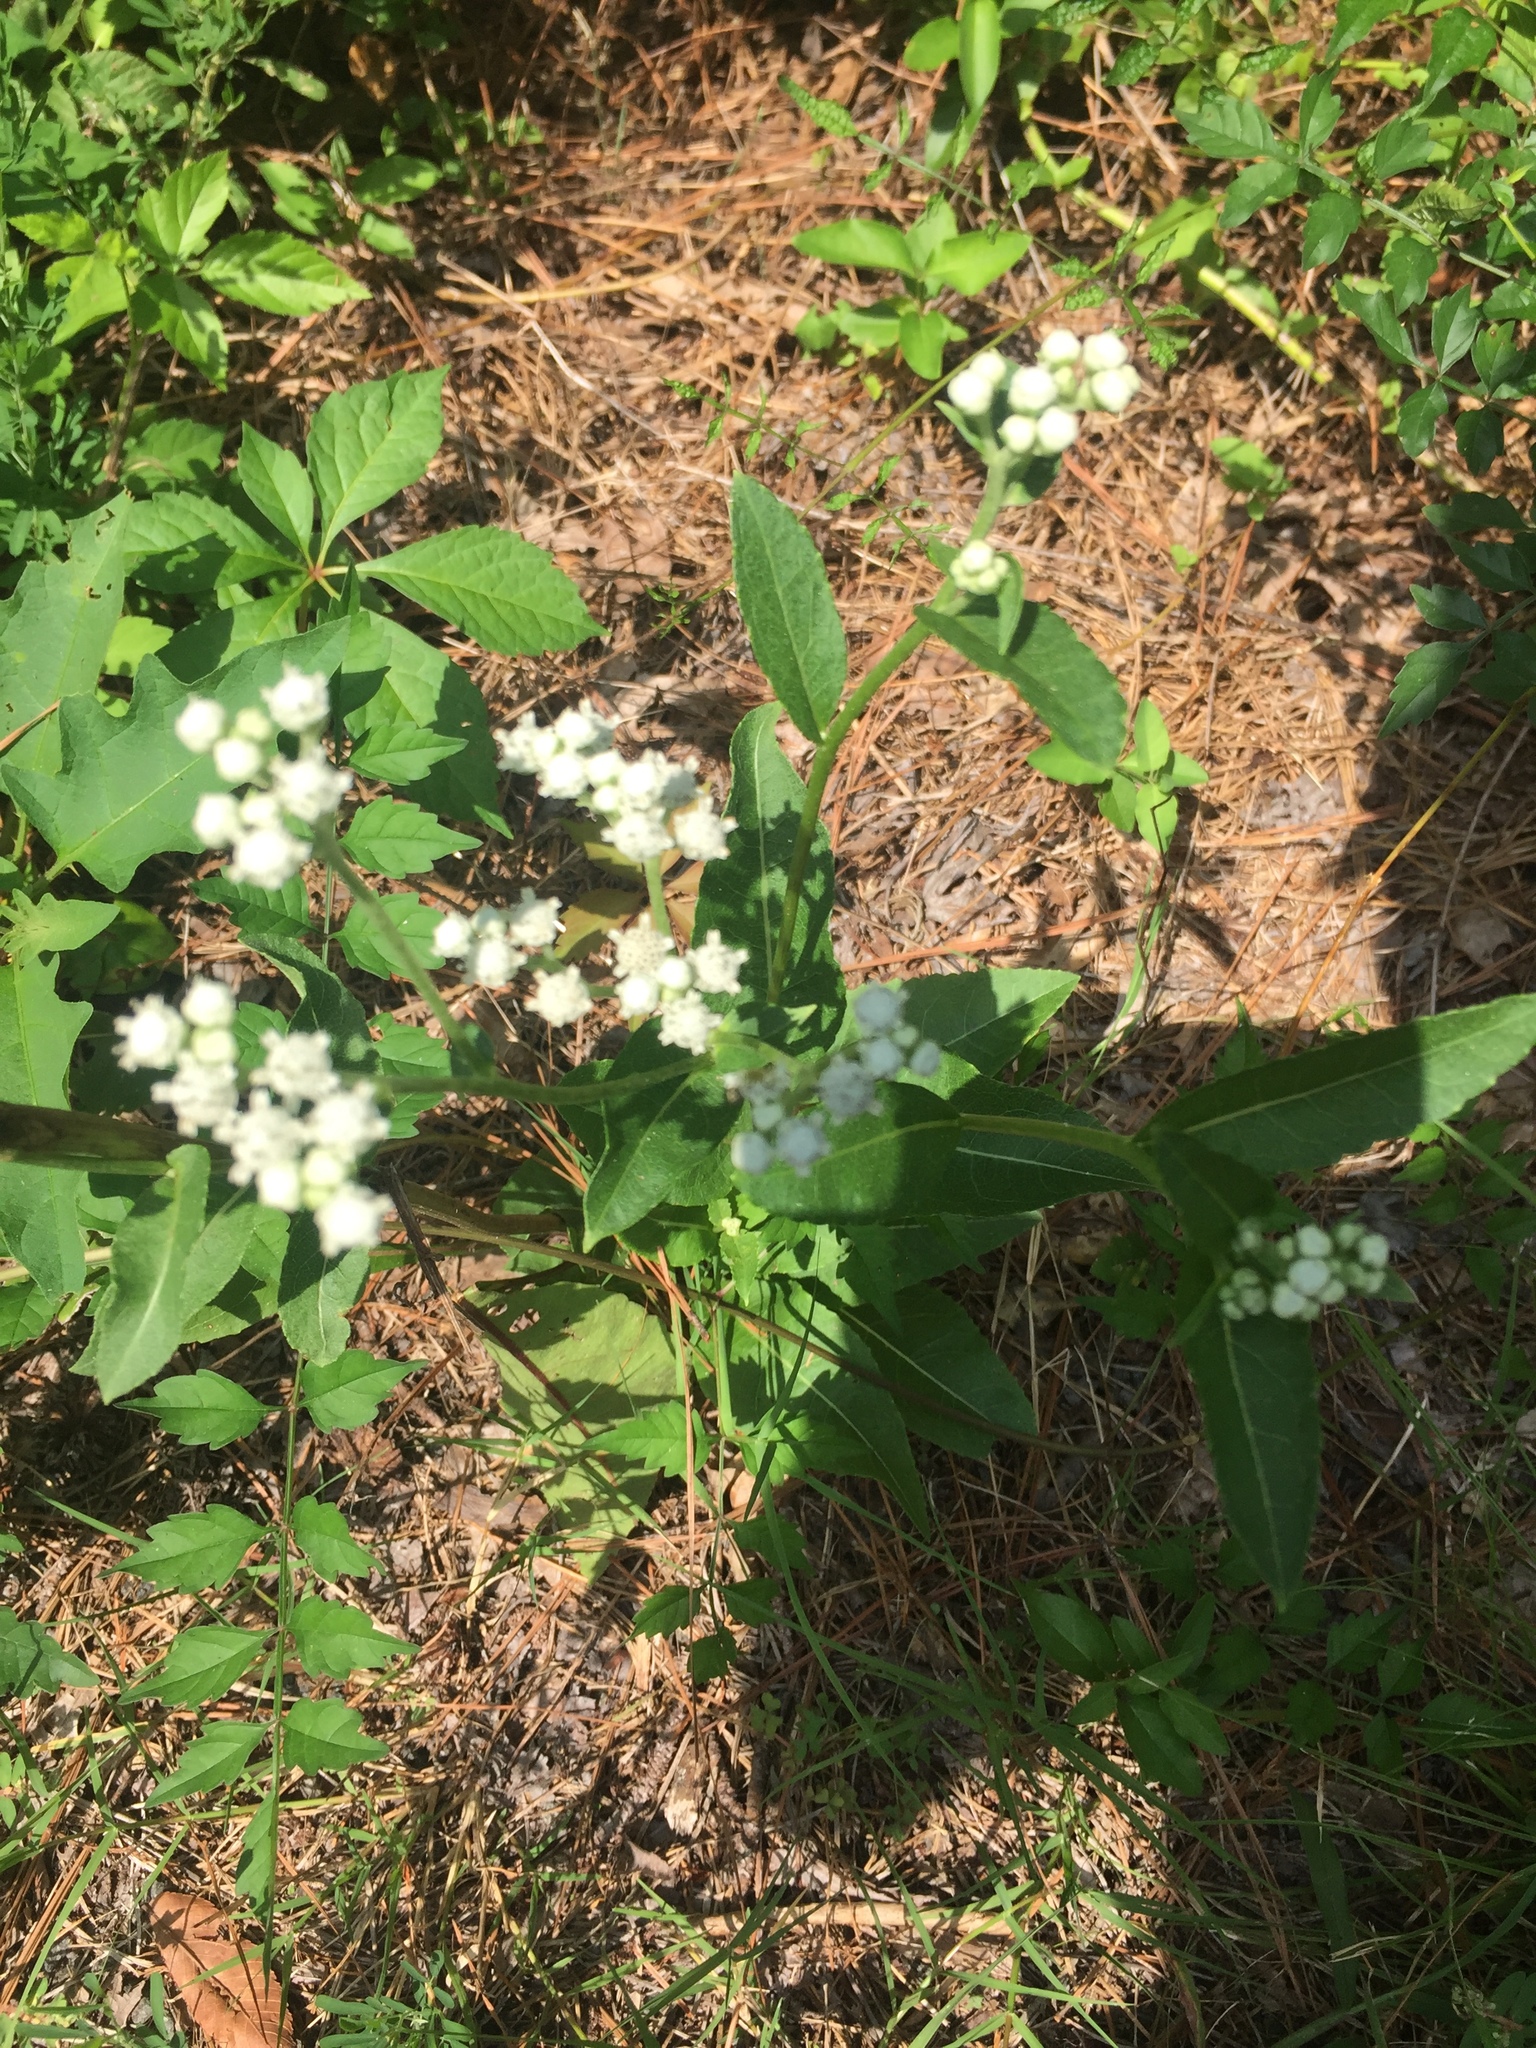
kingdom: Plantae
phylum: Tracheophyta
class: Magnoliopsida
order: Asterales
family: Asteraceae
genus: Parthenium
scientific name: Parthenium integrifolium
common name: American feverfew
